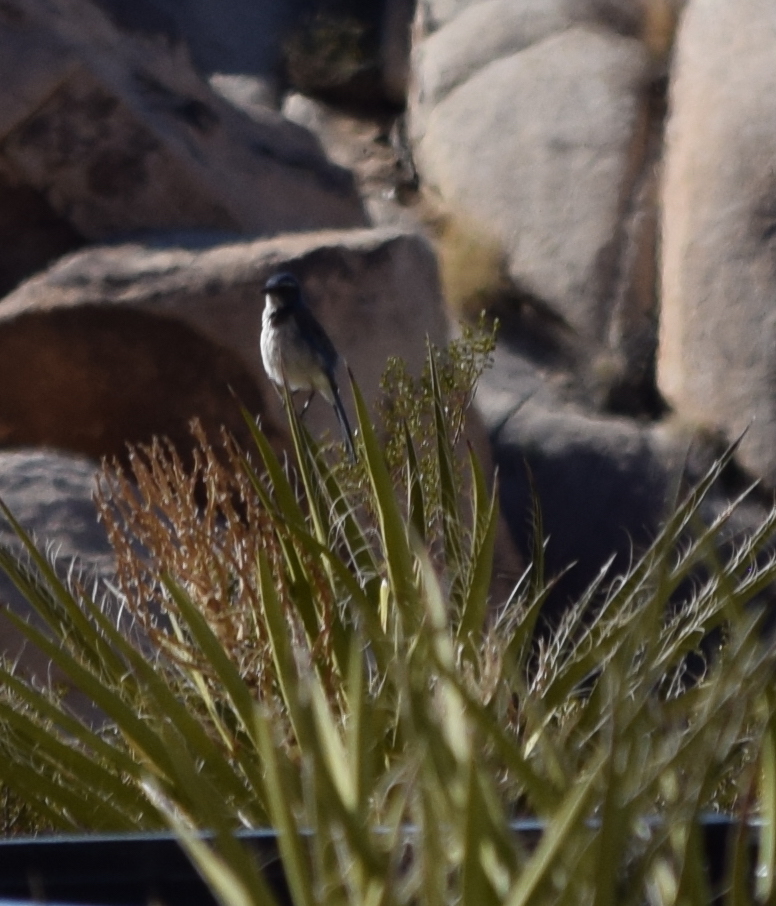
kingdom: Animalia
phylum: Chordata
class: Aves
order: Passeriformes
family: Corvidae
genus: Aphelocoma
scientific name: Aphelocoma californica
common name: California scrub-jay
